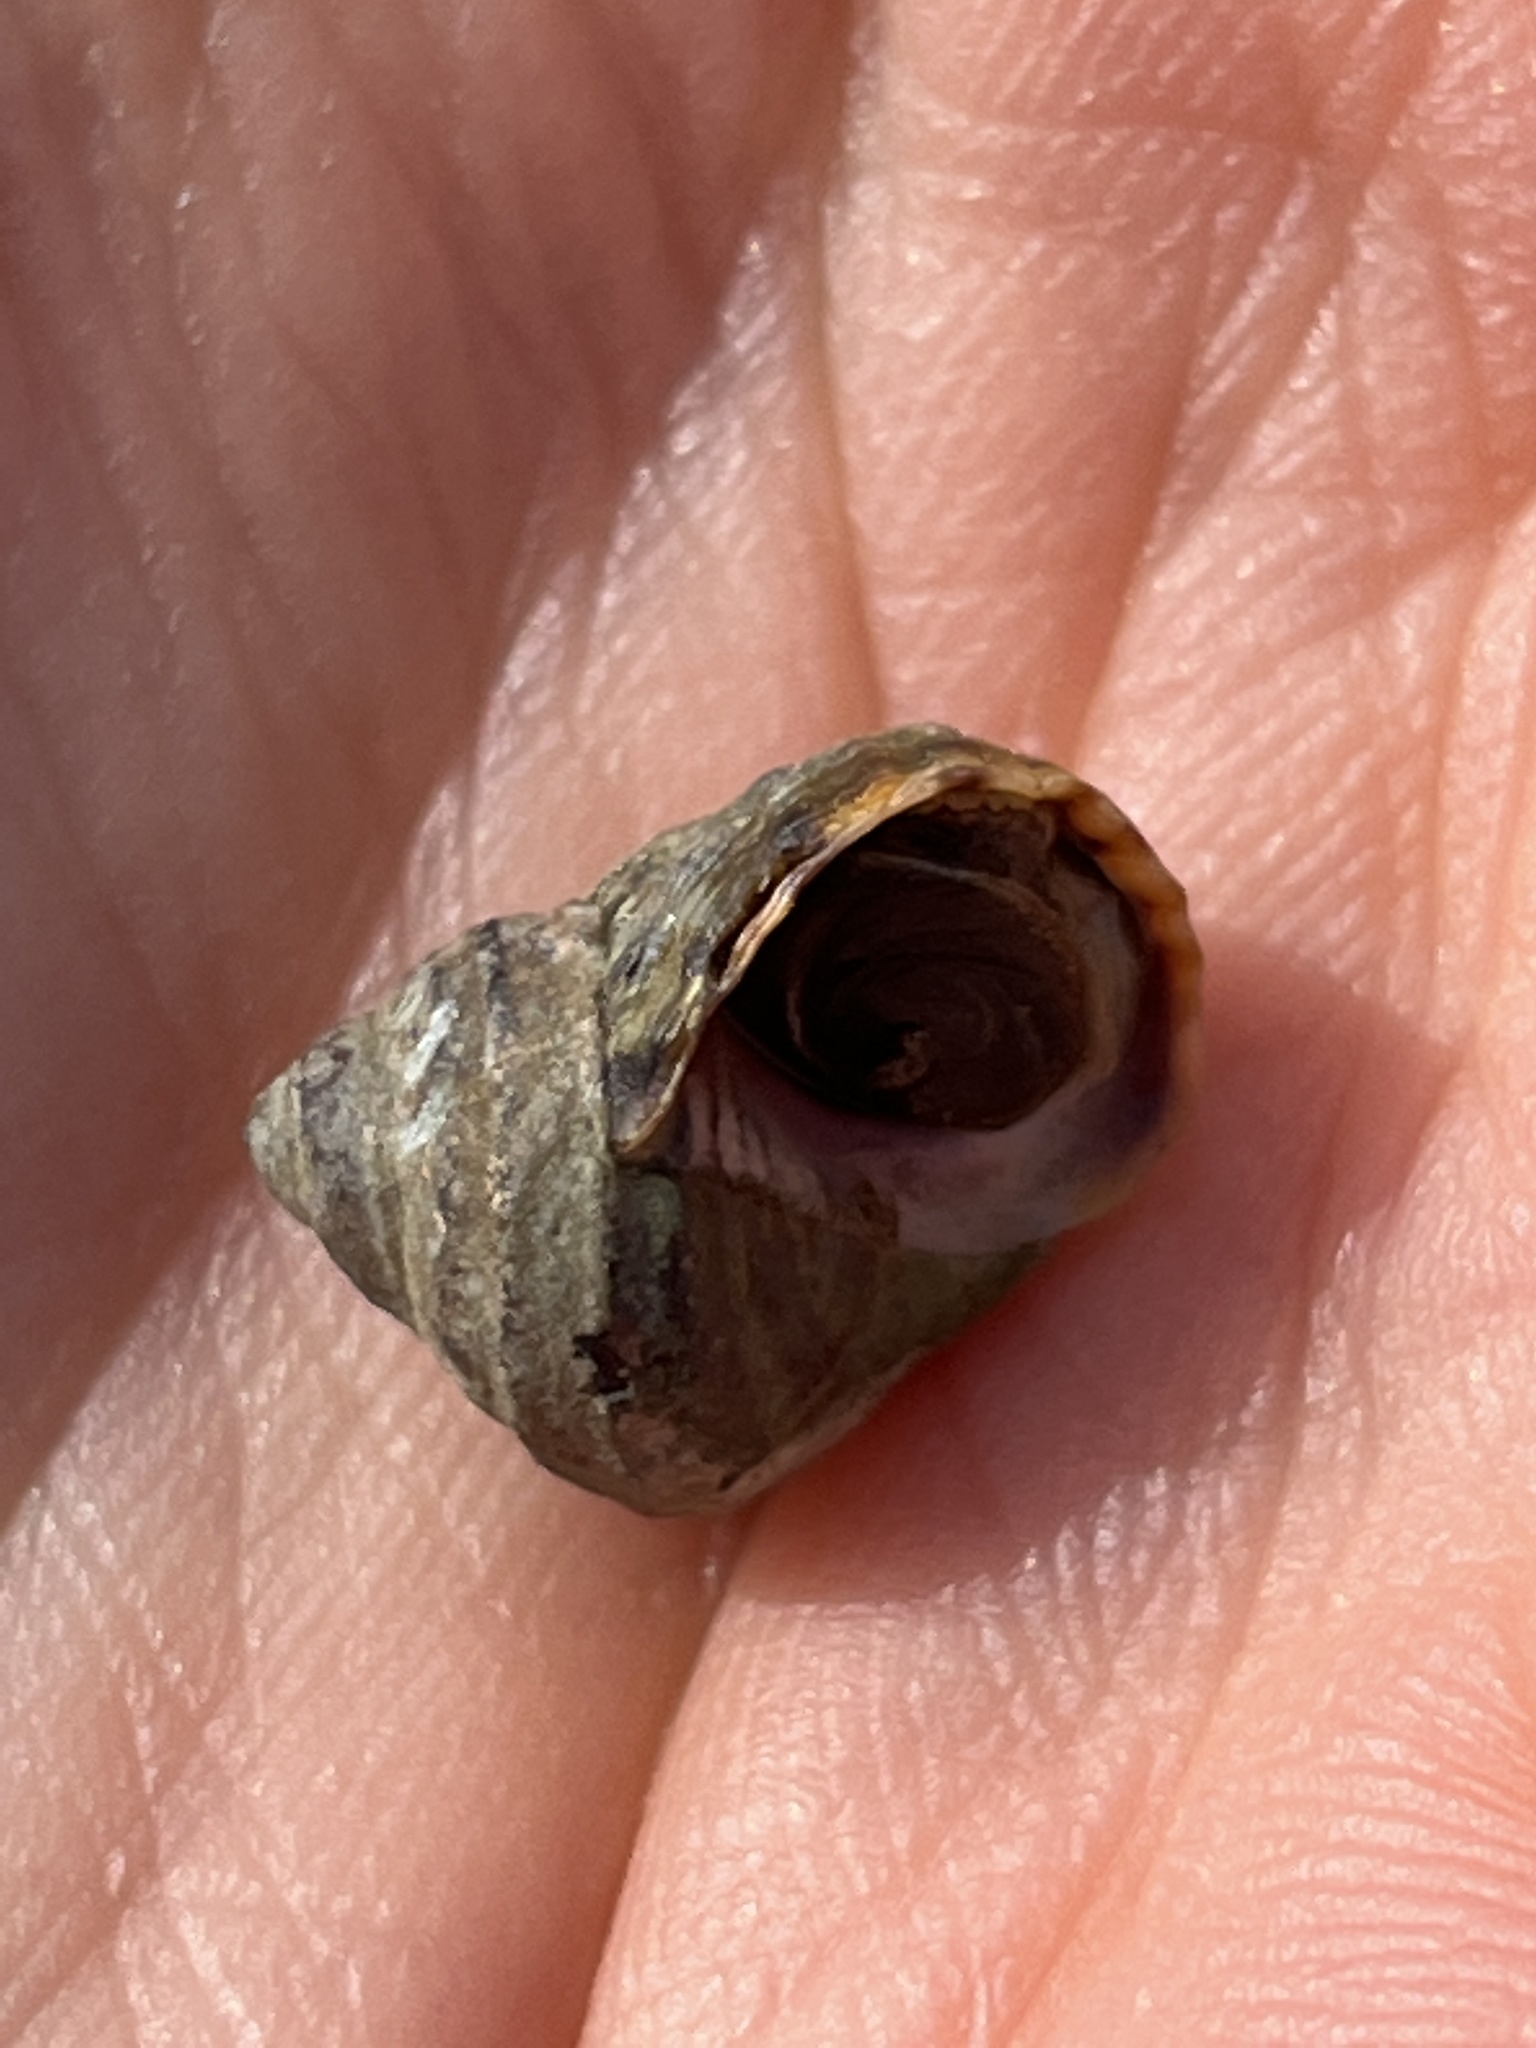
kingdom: Animalia
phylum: Mollusca
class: Gastropoda
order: Littorinimorpha
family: Littorinidae
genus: Littorina
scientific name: Littorina brevicula
